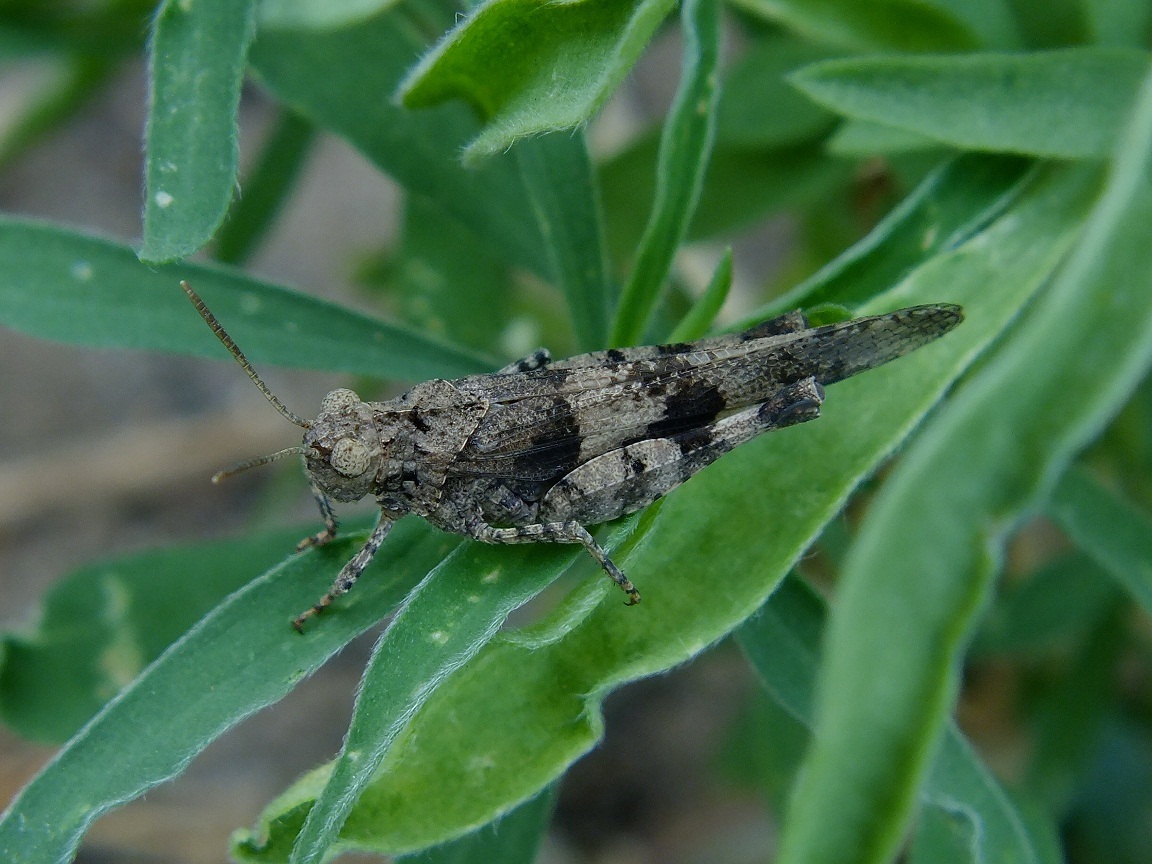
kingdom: Animalia
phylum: Arthropoda
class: Insecta
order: Orthoptera
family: Acrididae
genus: Oedipoda
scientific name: Oedipoda caerulescens
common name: Blue-winged grasshopper
